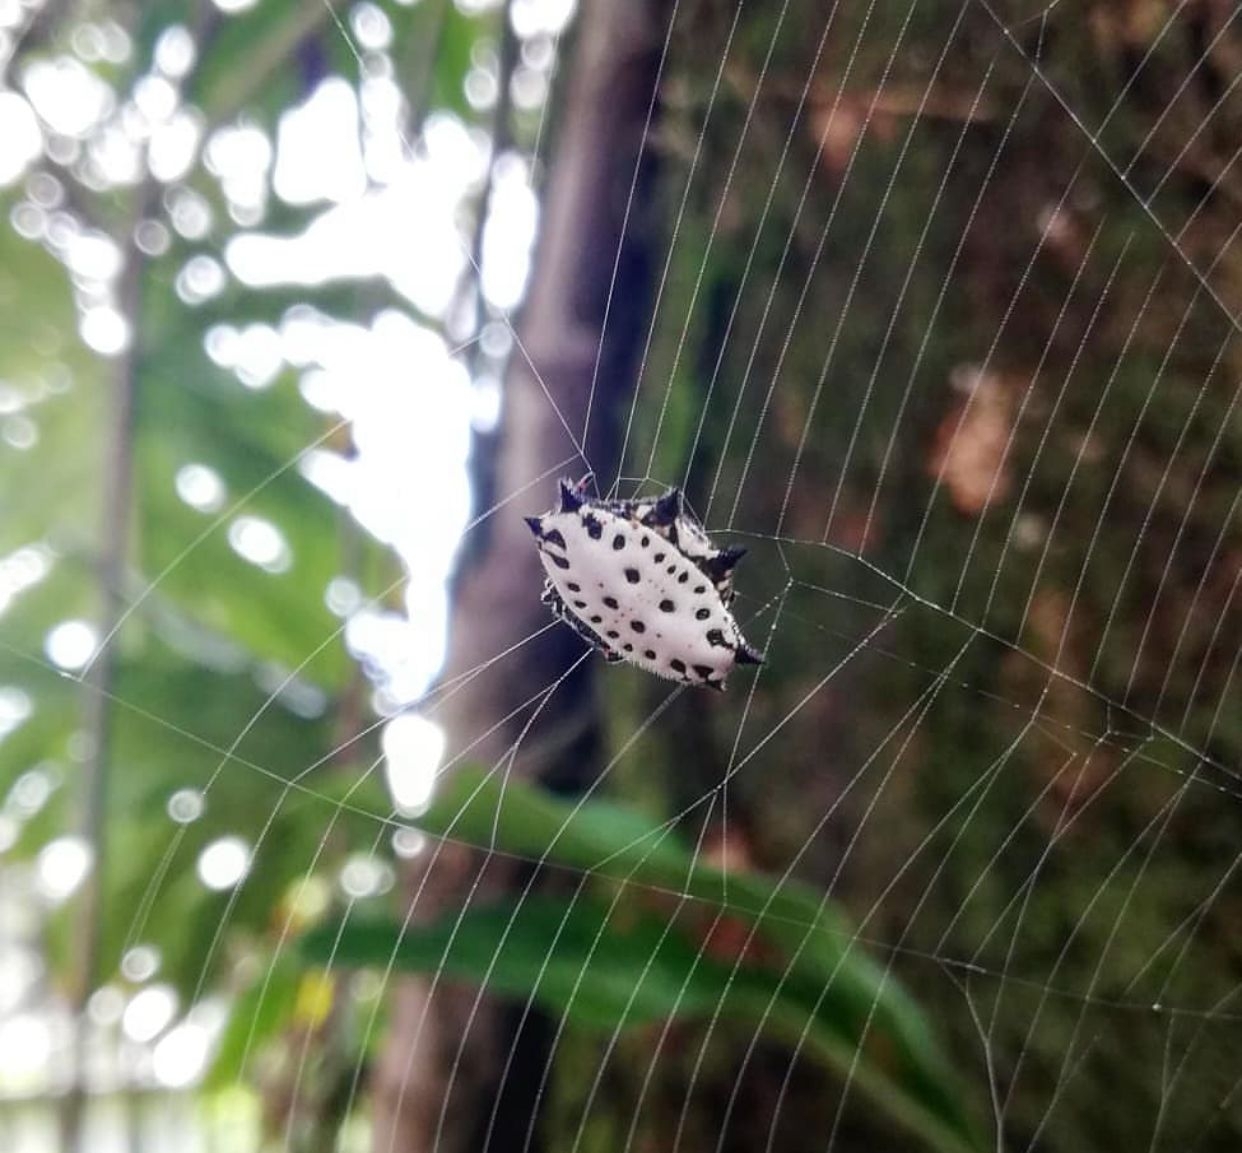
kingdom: Animalia
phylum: Arthropoda
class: Arachnida
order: Araneae
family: Araneidae
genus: Gasteracantha
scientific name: Gasteracantha cancriformis
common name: Orb weavers
